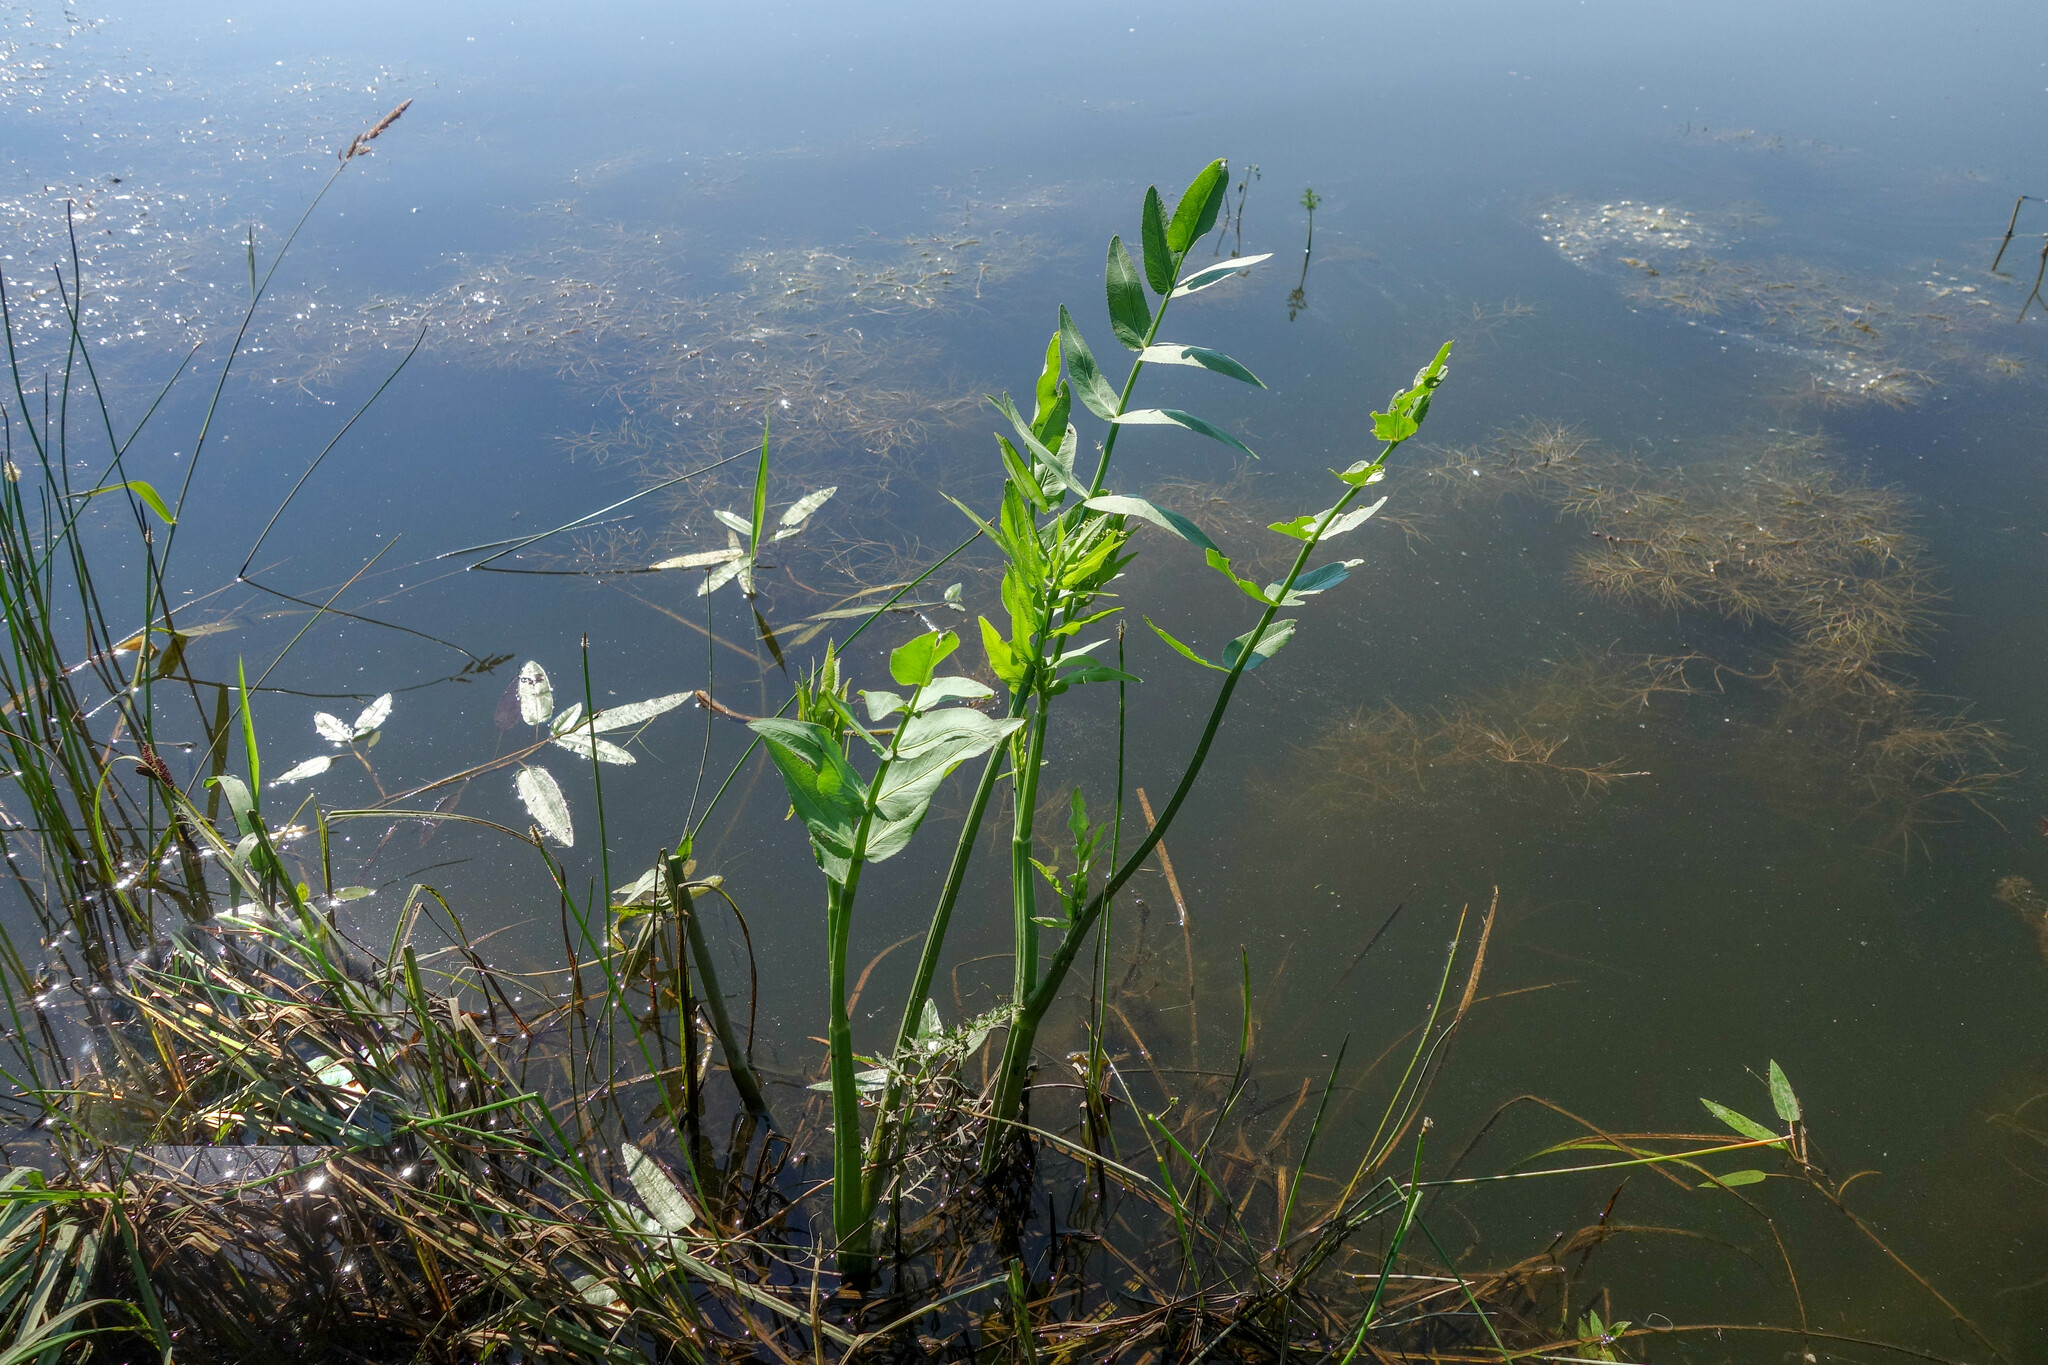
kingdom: Plantae
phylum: Tracheophyta
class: Magnoliopsida
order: Apiales
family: Apiaceae
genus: Sium
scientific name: Sium latifolium
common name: Greater water-parsnip
